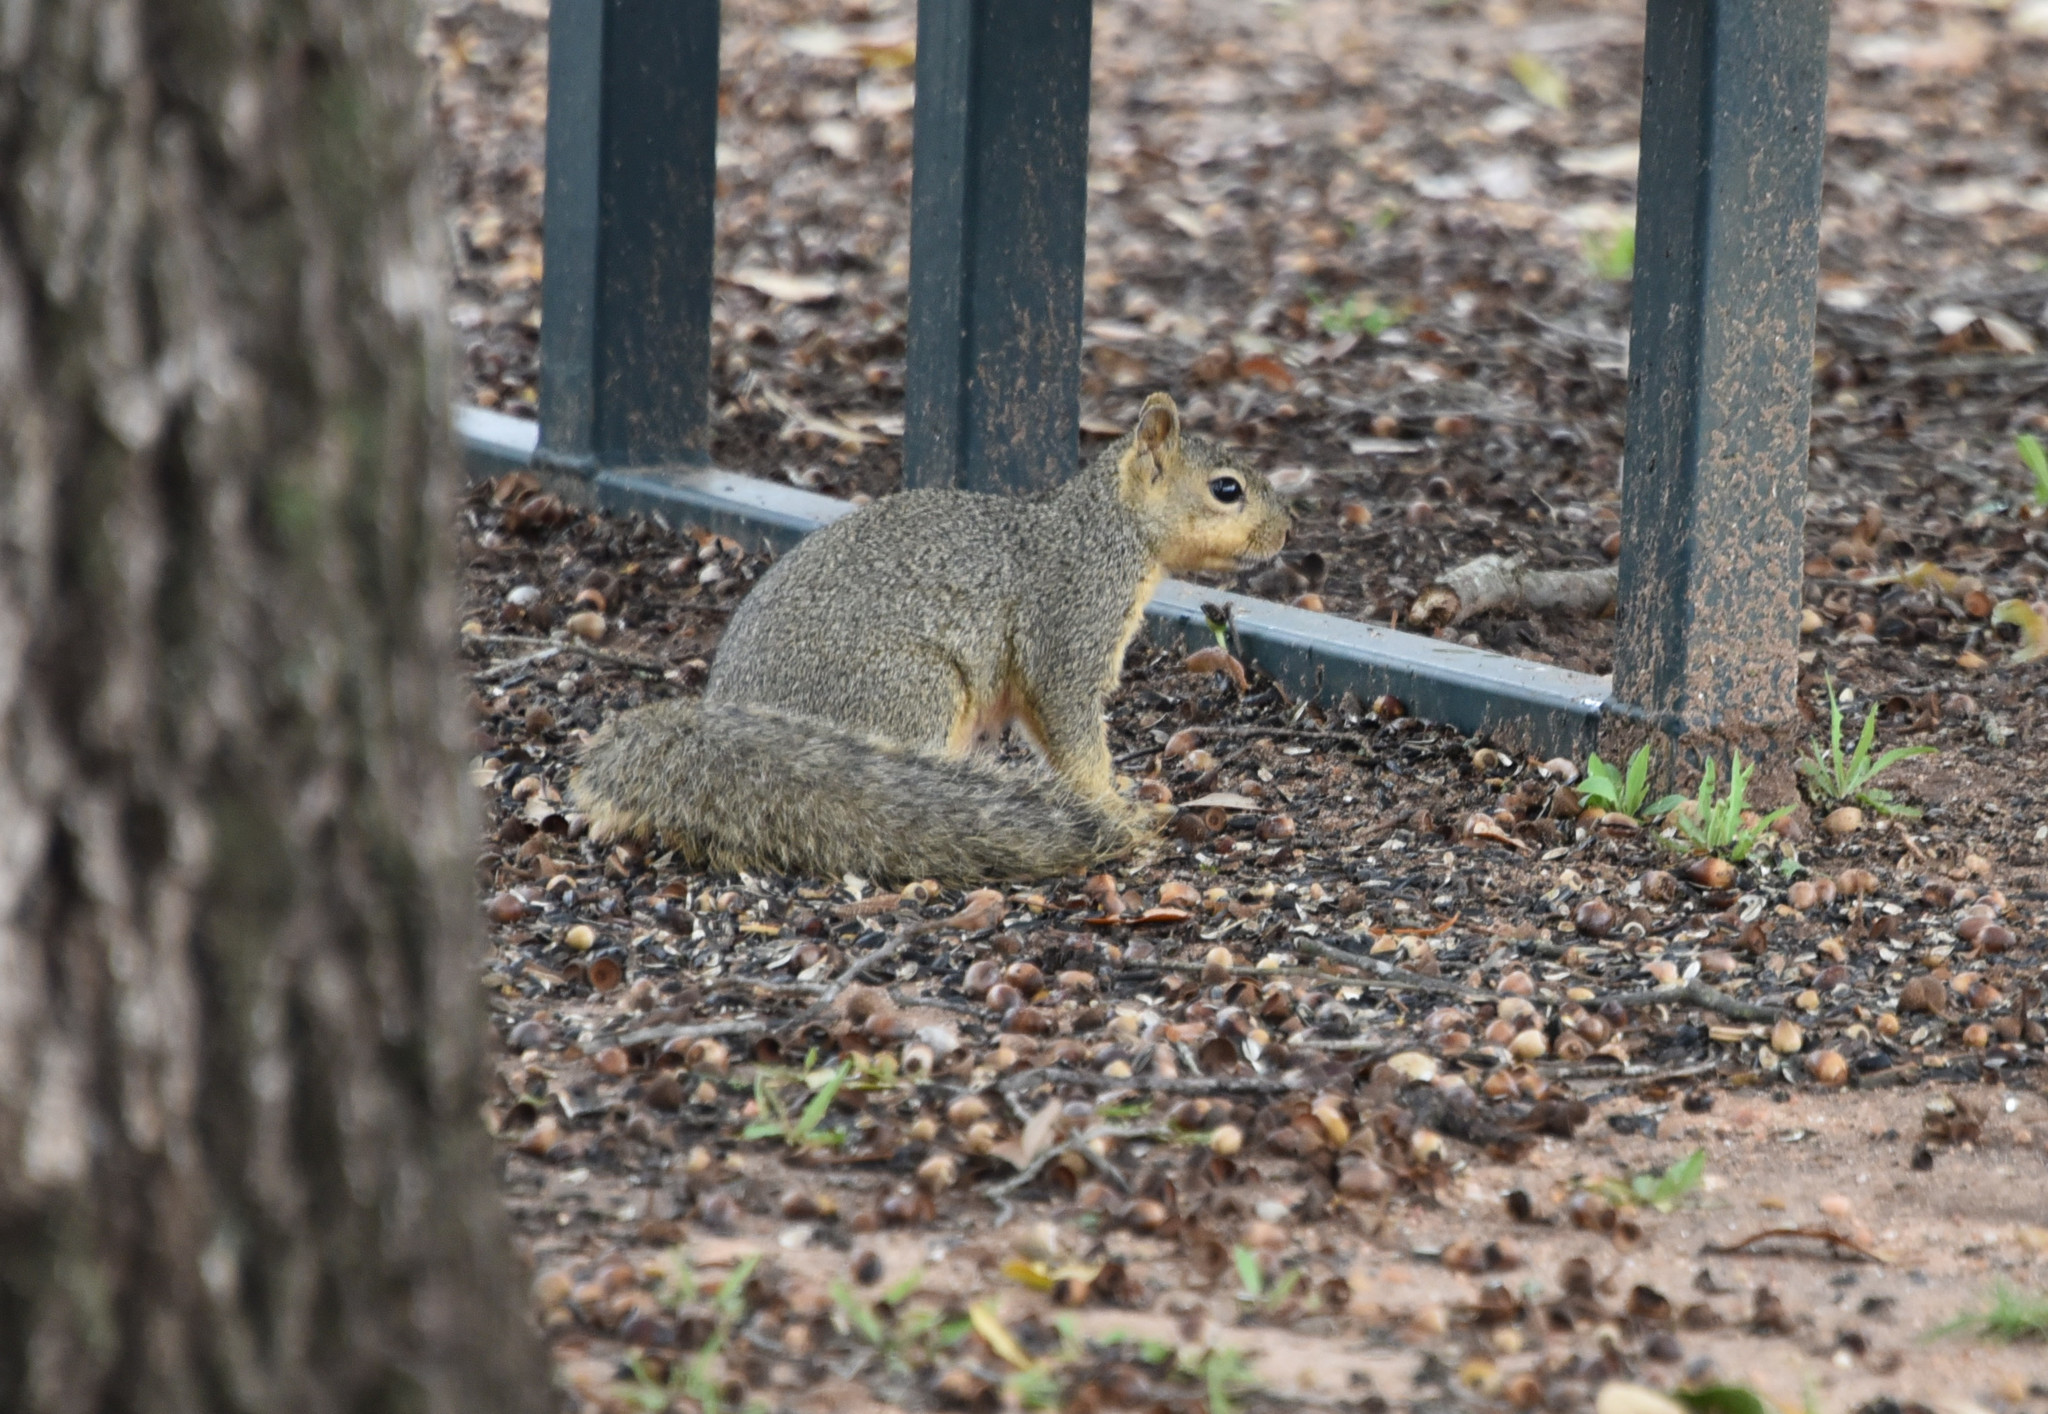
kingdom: Animalia
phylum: Chordata
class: Mammalia
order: Rodentia
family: Sciuridae
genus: Sciurus
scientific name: Sciurus niger
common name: Fox squirrel
